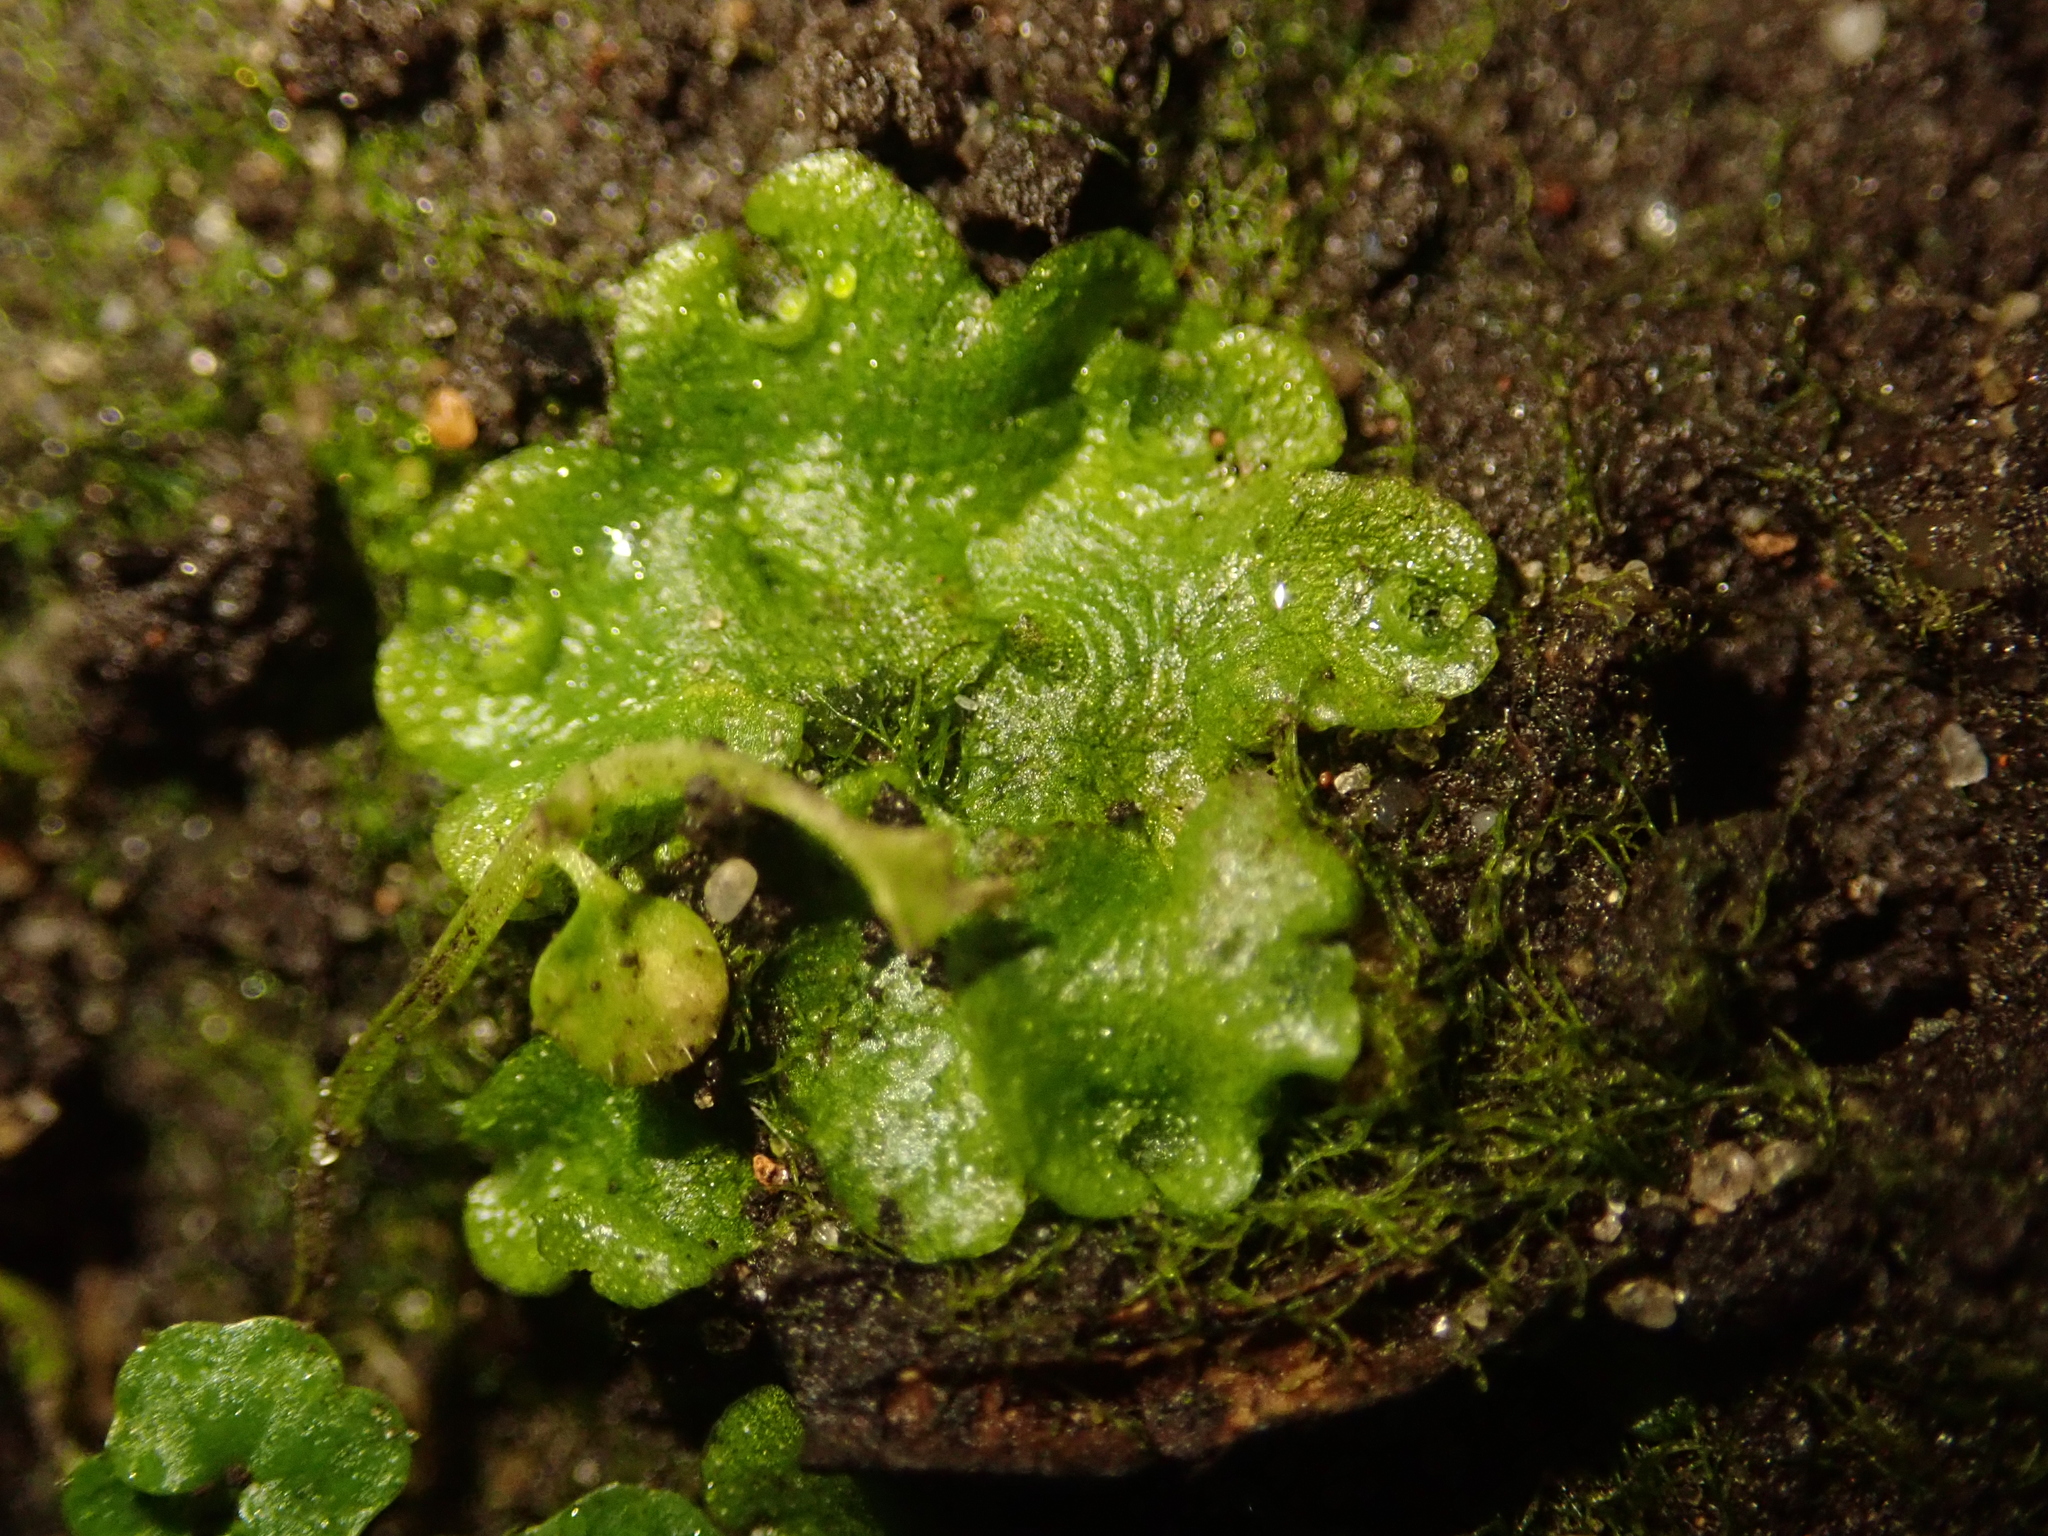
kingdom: Plantae
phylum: Marchantiophyta
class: Marchantiopsida
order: Lunulariales
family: Lunulariaceae
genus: Lunularia
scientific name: Lunularia cruciata
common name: Crescent-cup liverwort
